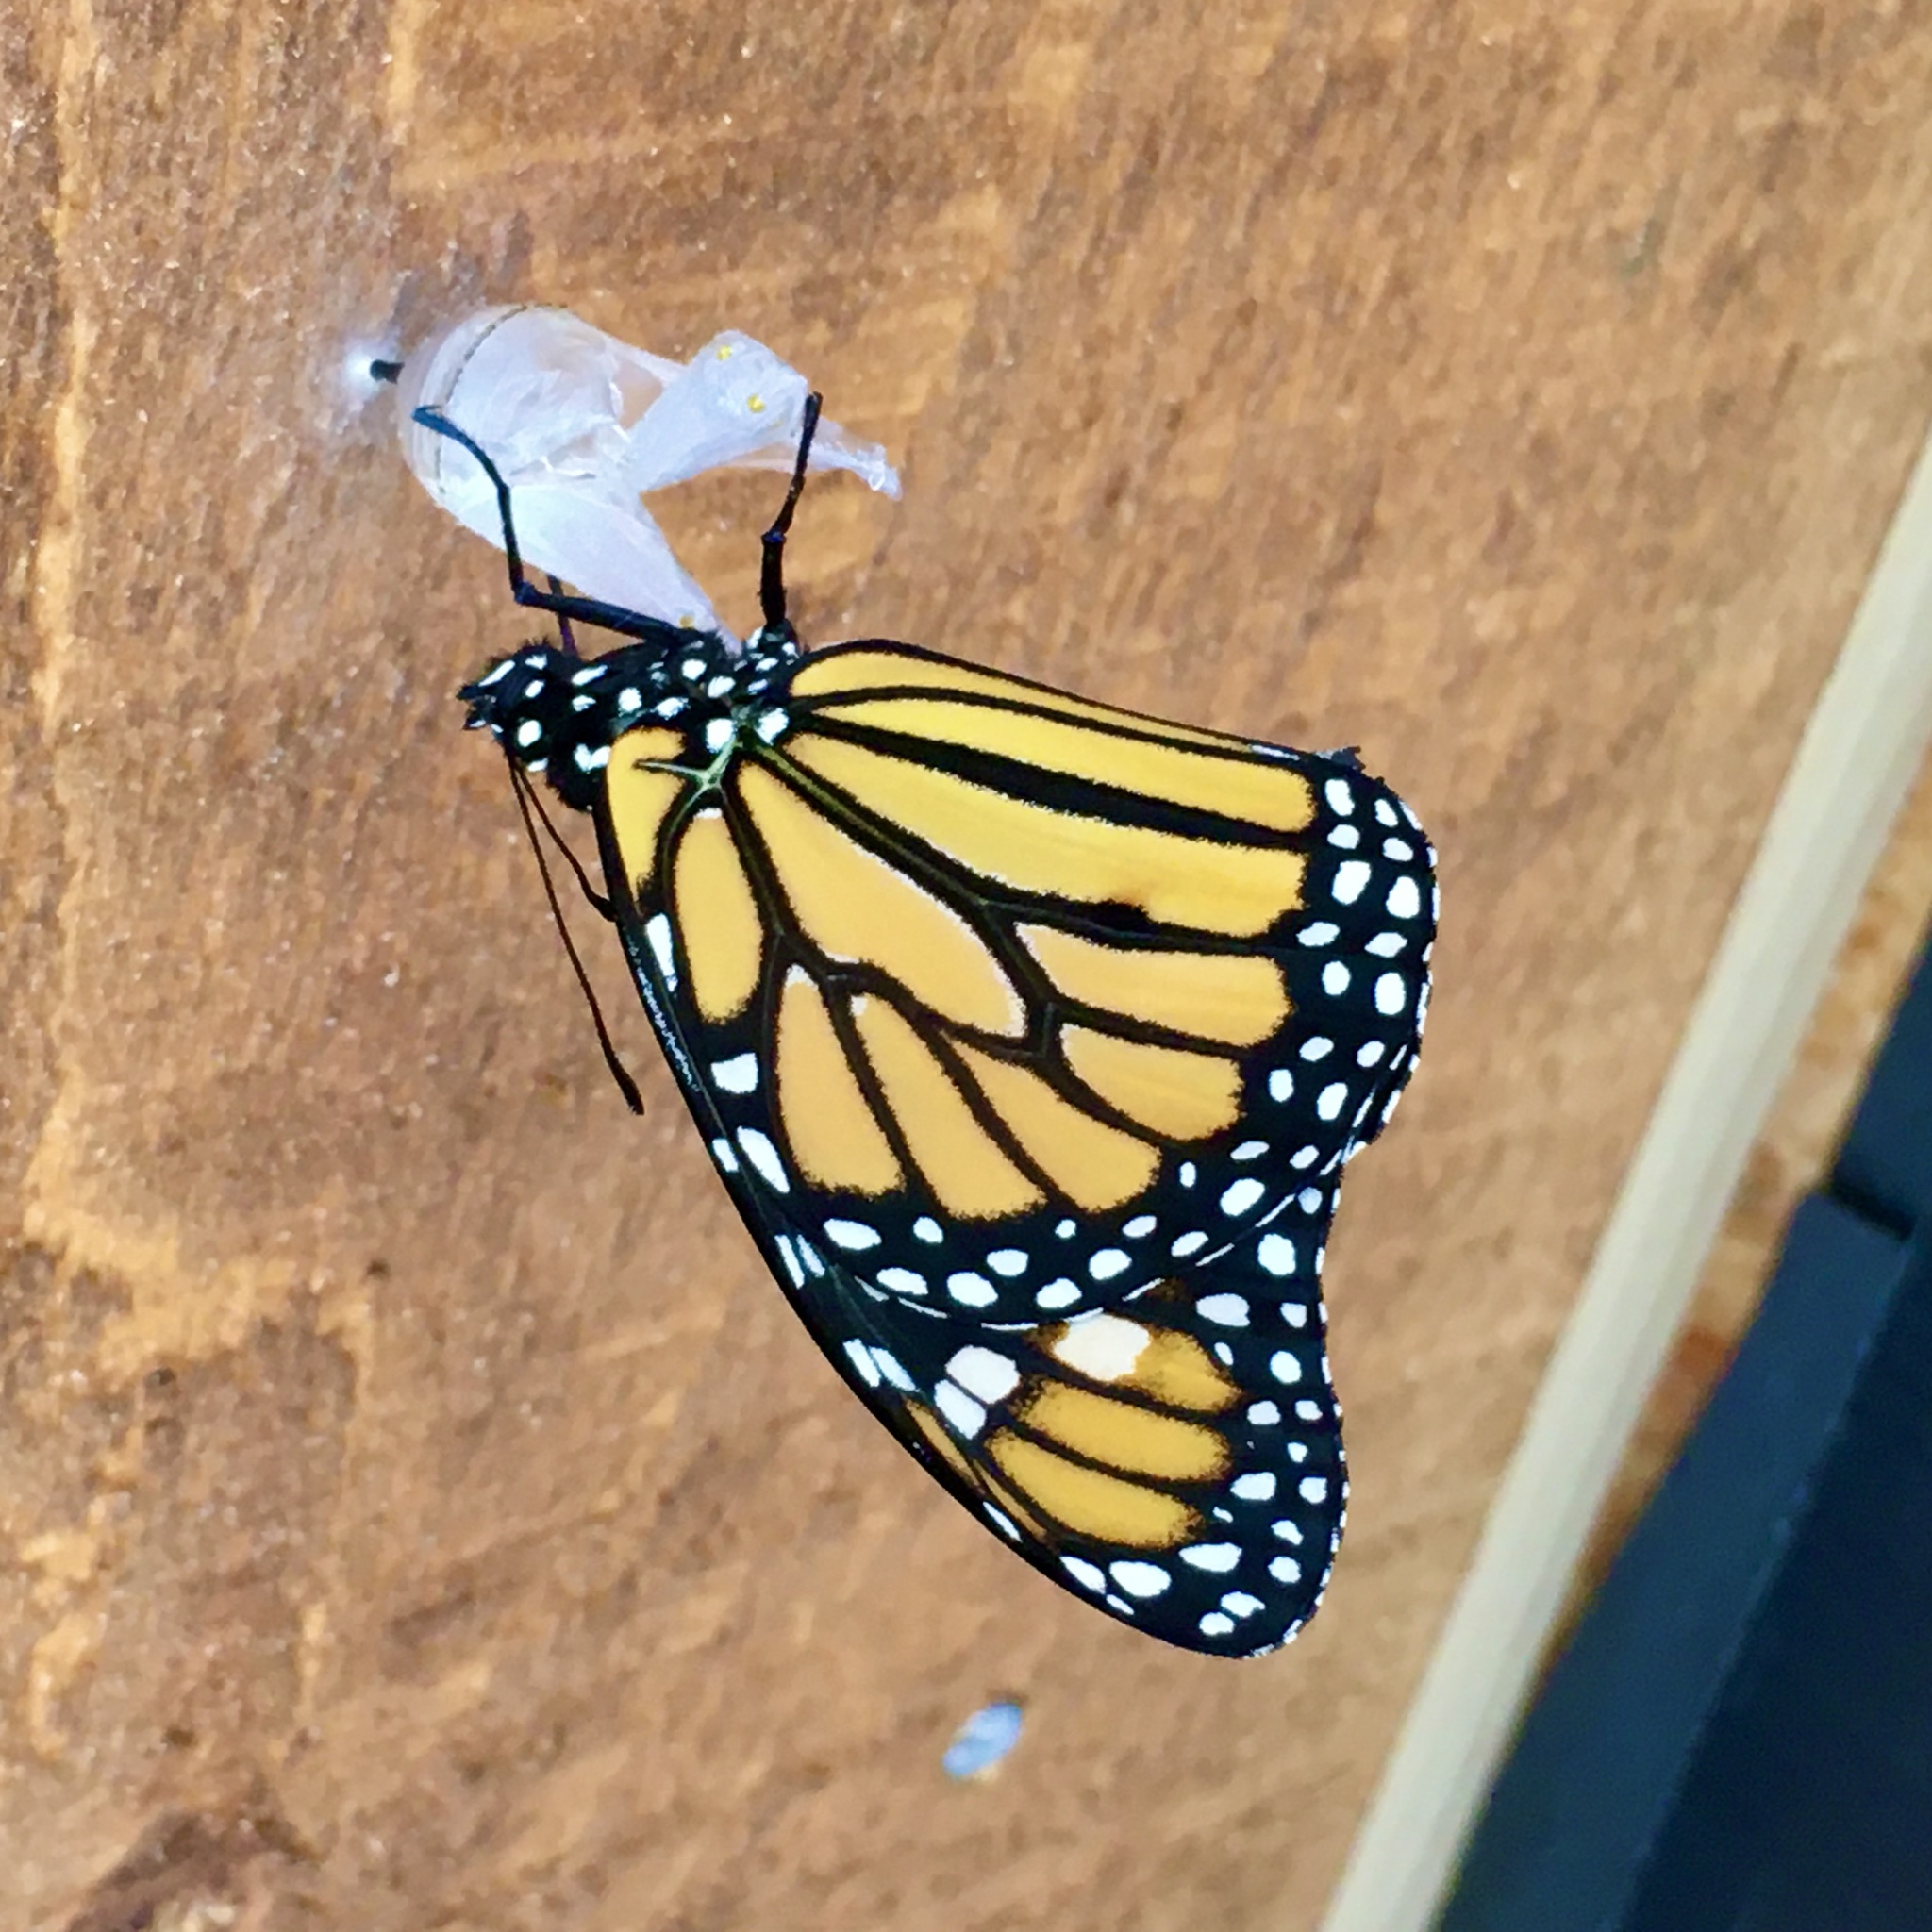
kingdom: Animalia
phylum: Arthropoda
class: Insecta
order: Lepidoptera
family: Nymphalidae
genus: Danaus
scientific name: Danaus plexippus
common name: Monarch
